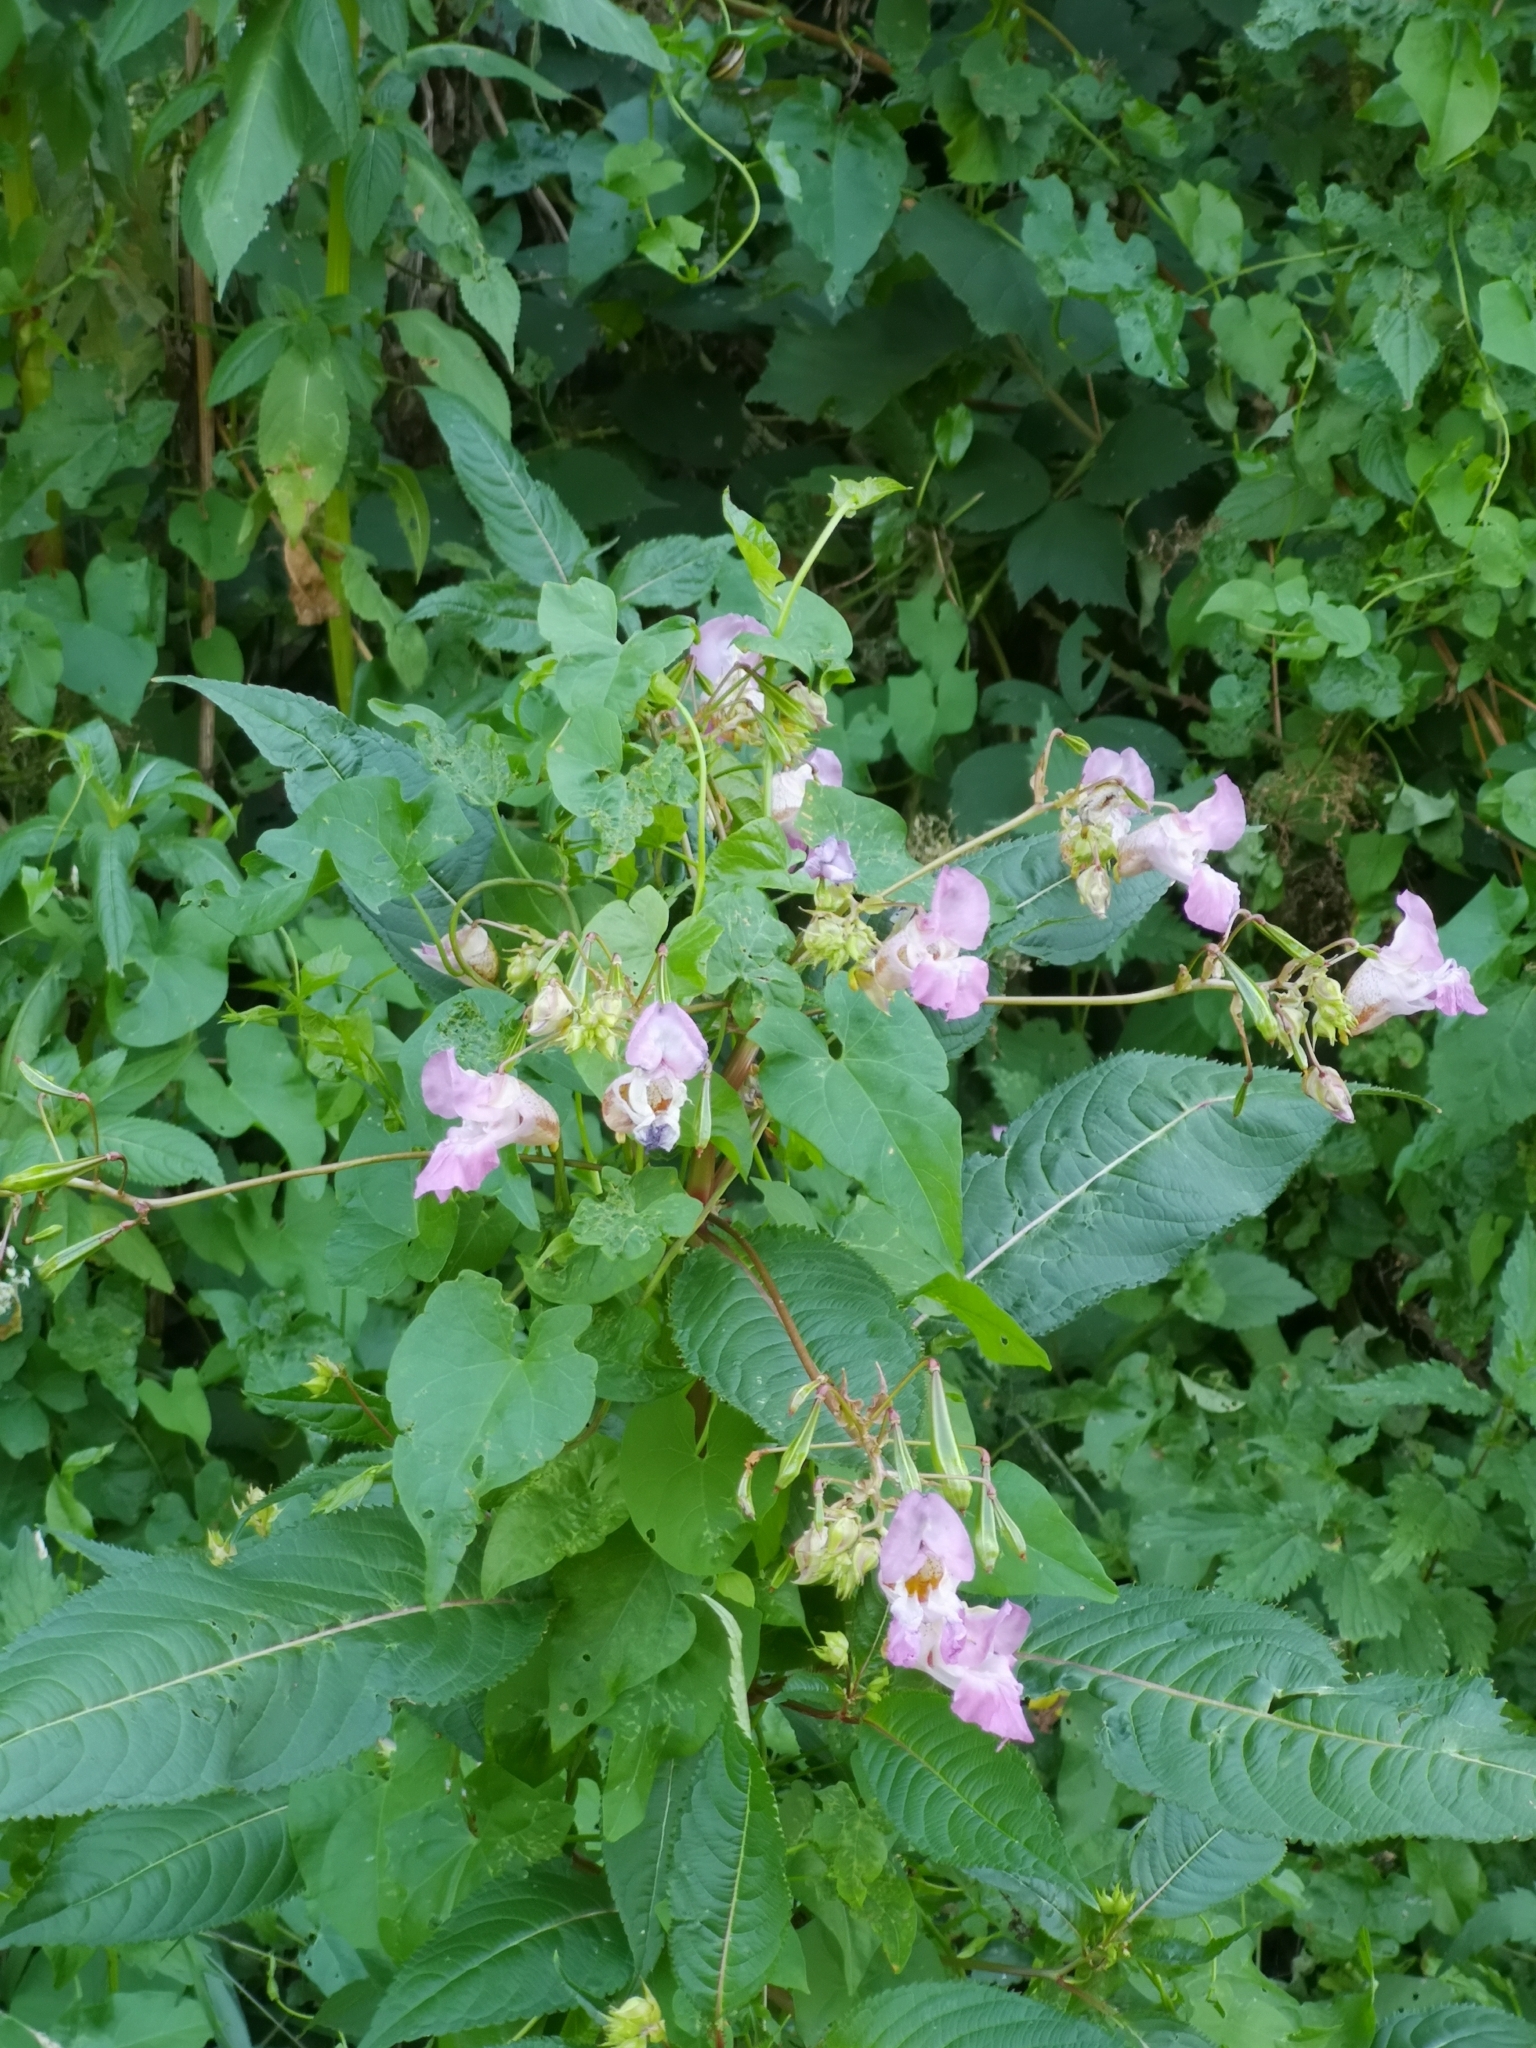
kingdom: Plantae
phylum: Tracheophyta
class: Magnoliopsida
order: Ericales
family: Balsaminaceae
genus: Impatiens
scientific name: Impatiens glandulifera
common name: Himalayan balsam
